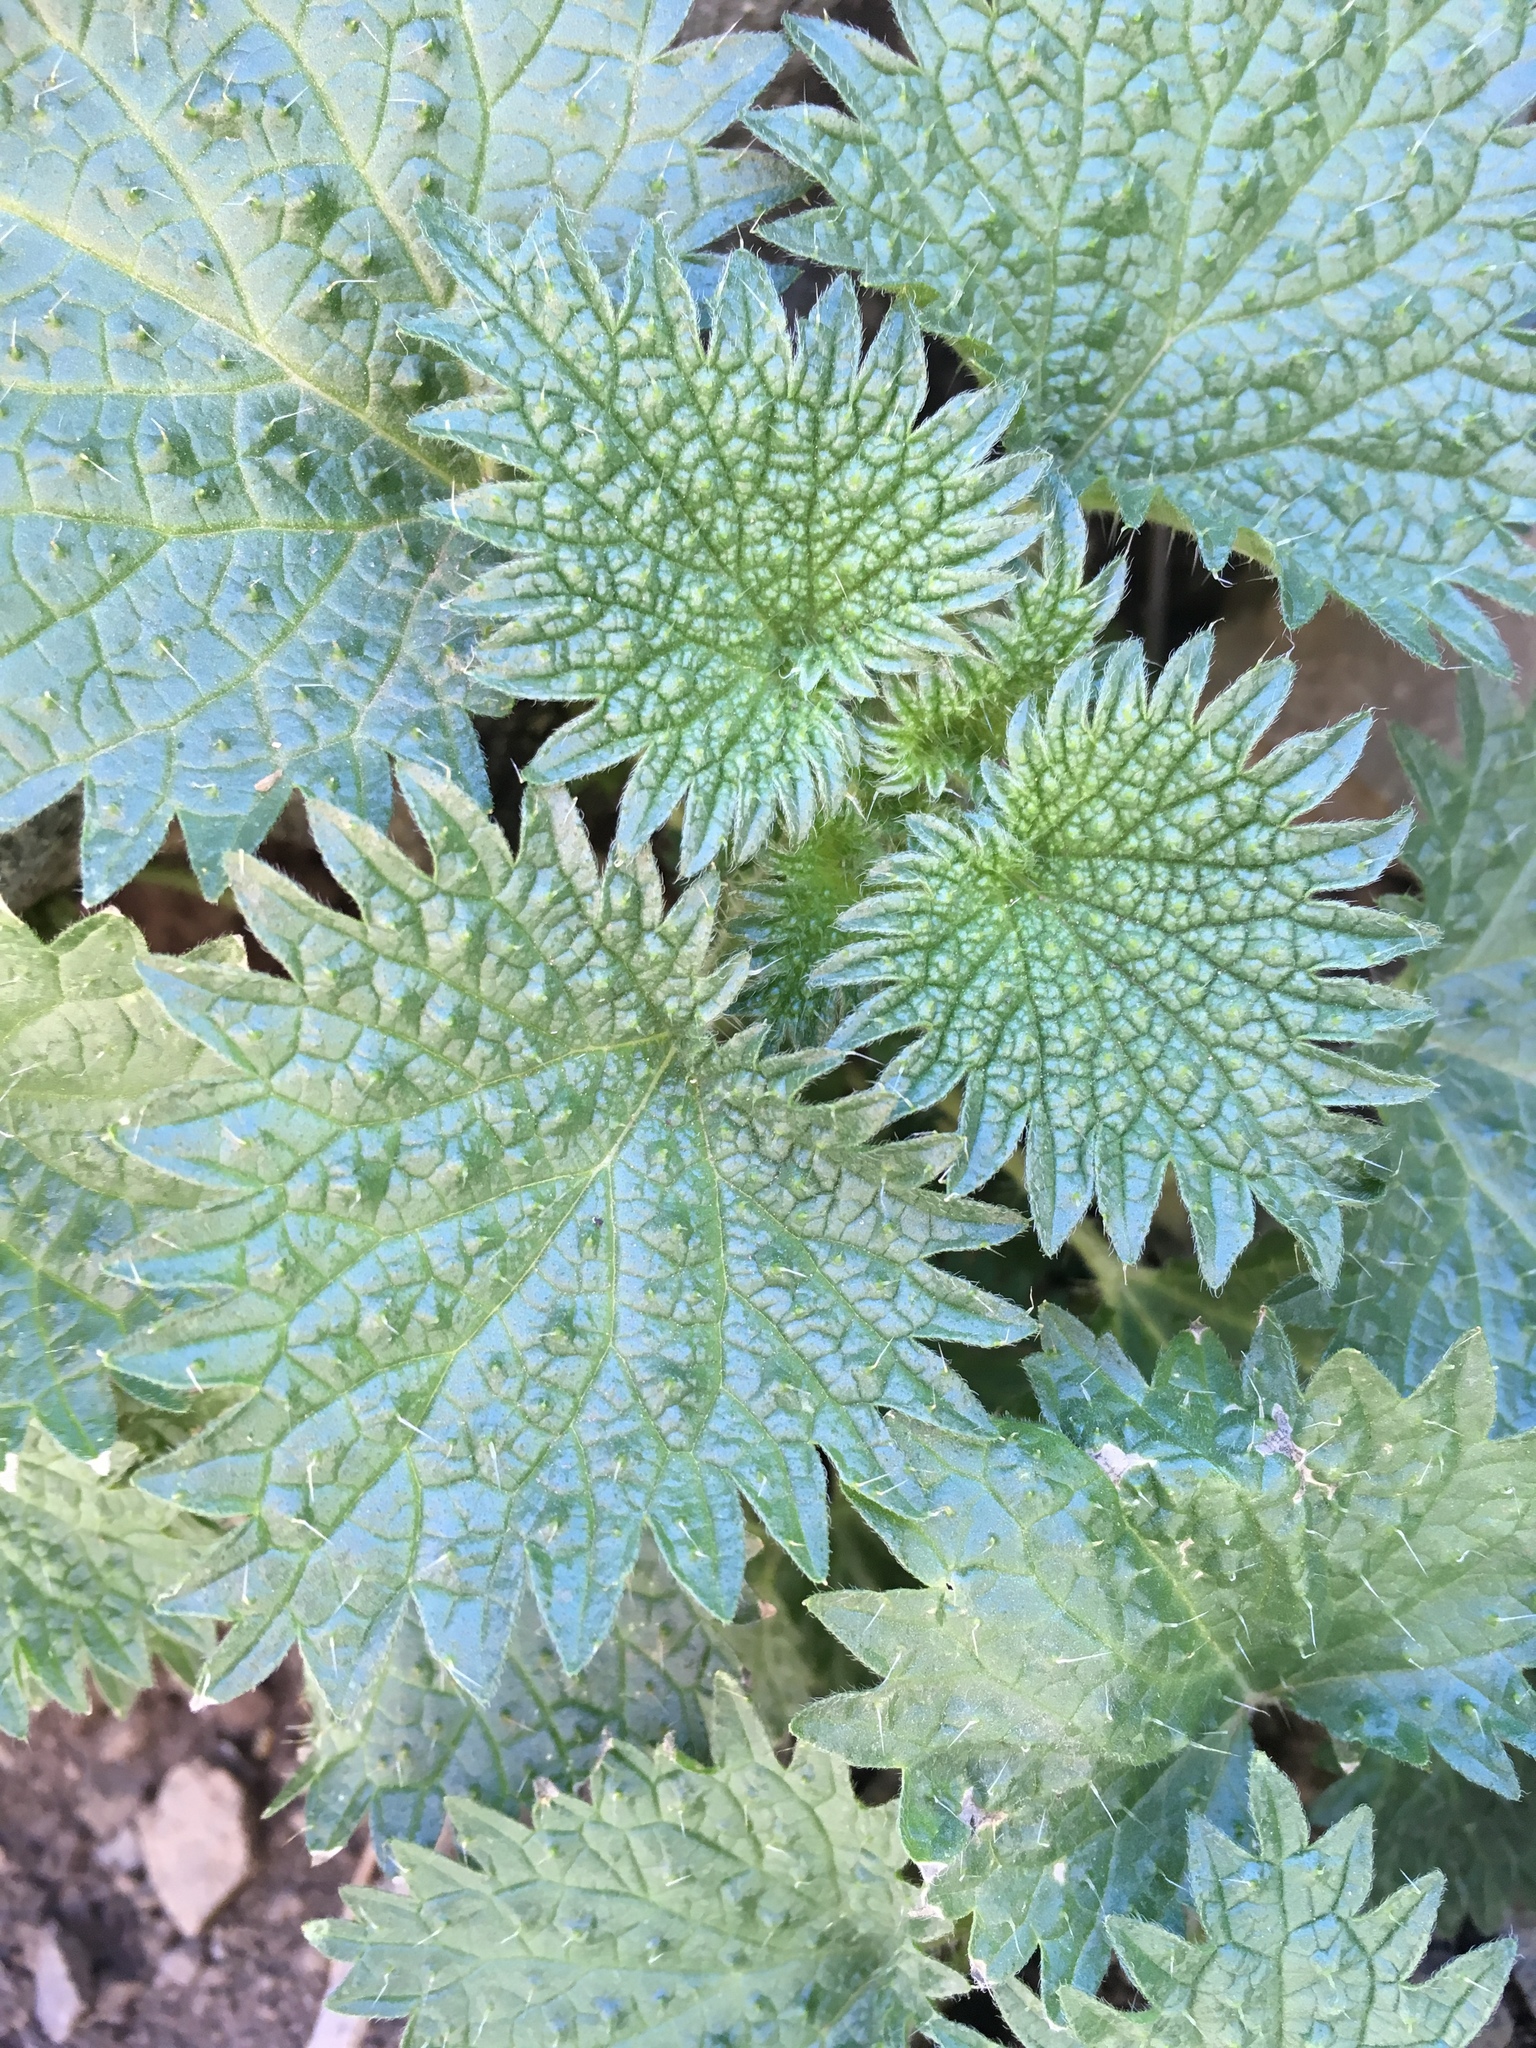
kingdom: Plantae
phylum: Tracheophyta
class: Magnoliopsida
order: Rosales
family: Urticaceae
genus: Urtica
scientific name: Urtica gracilenta
